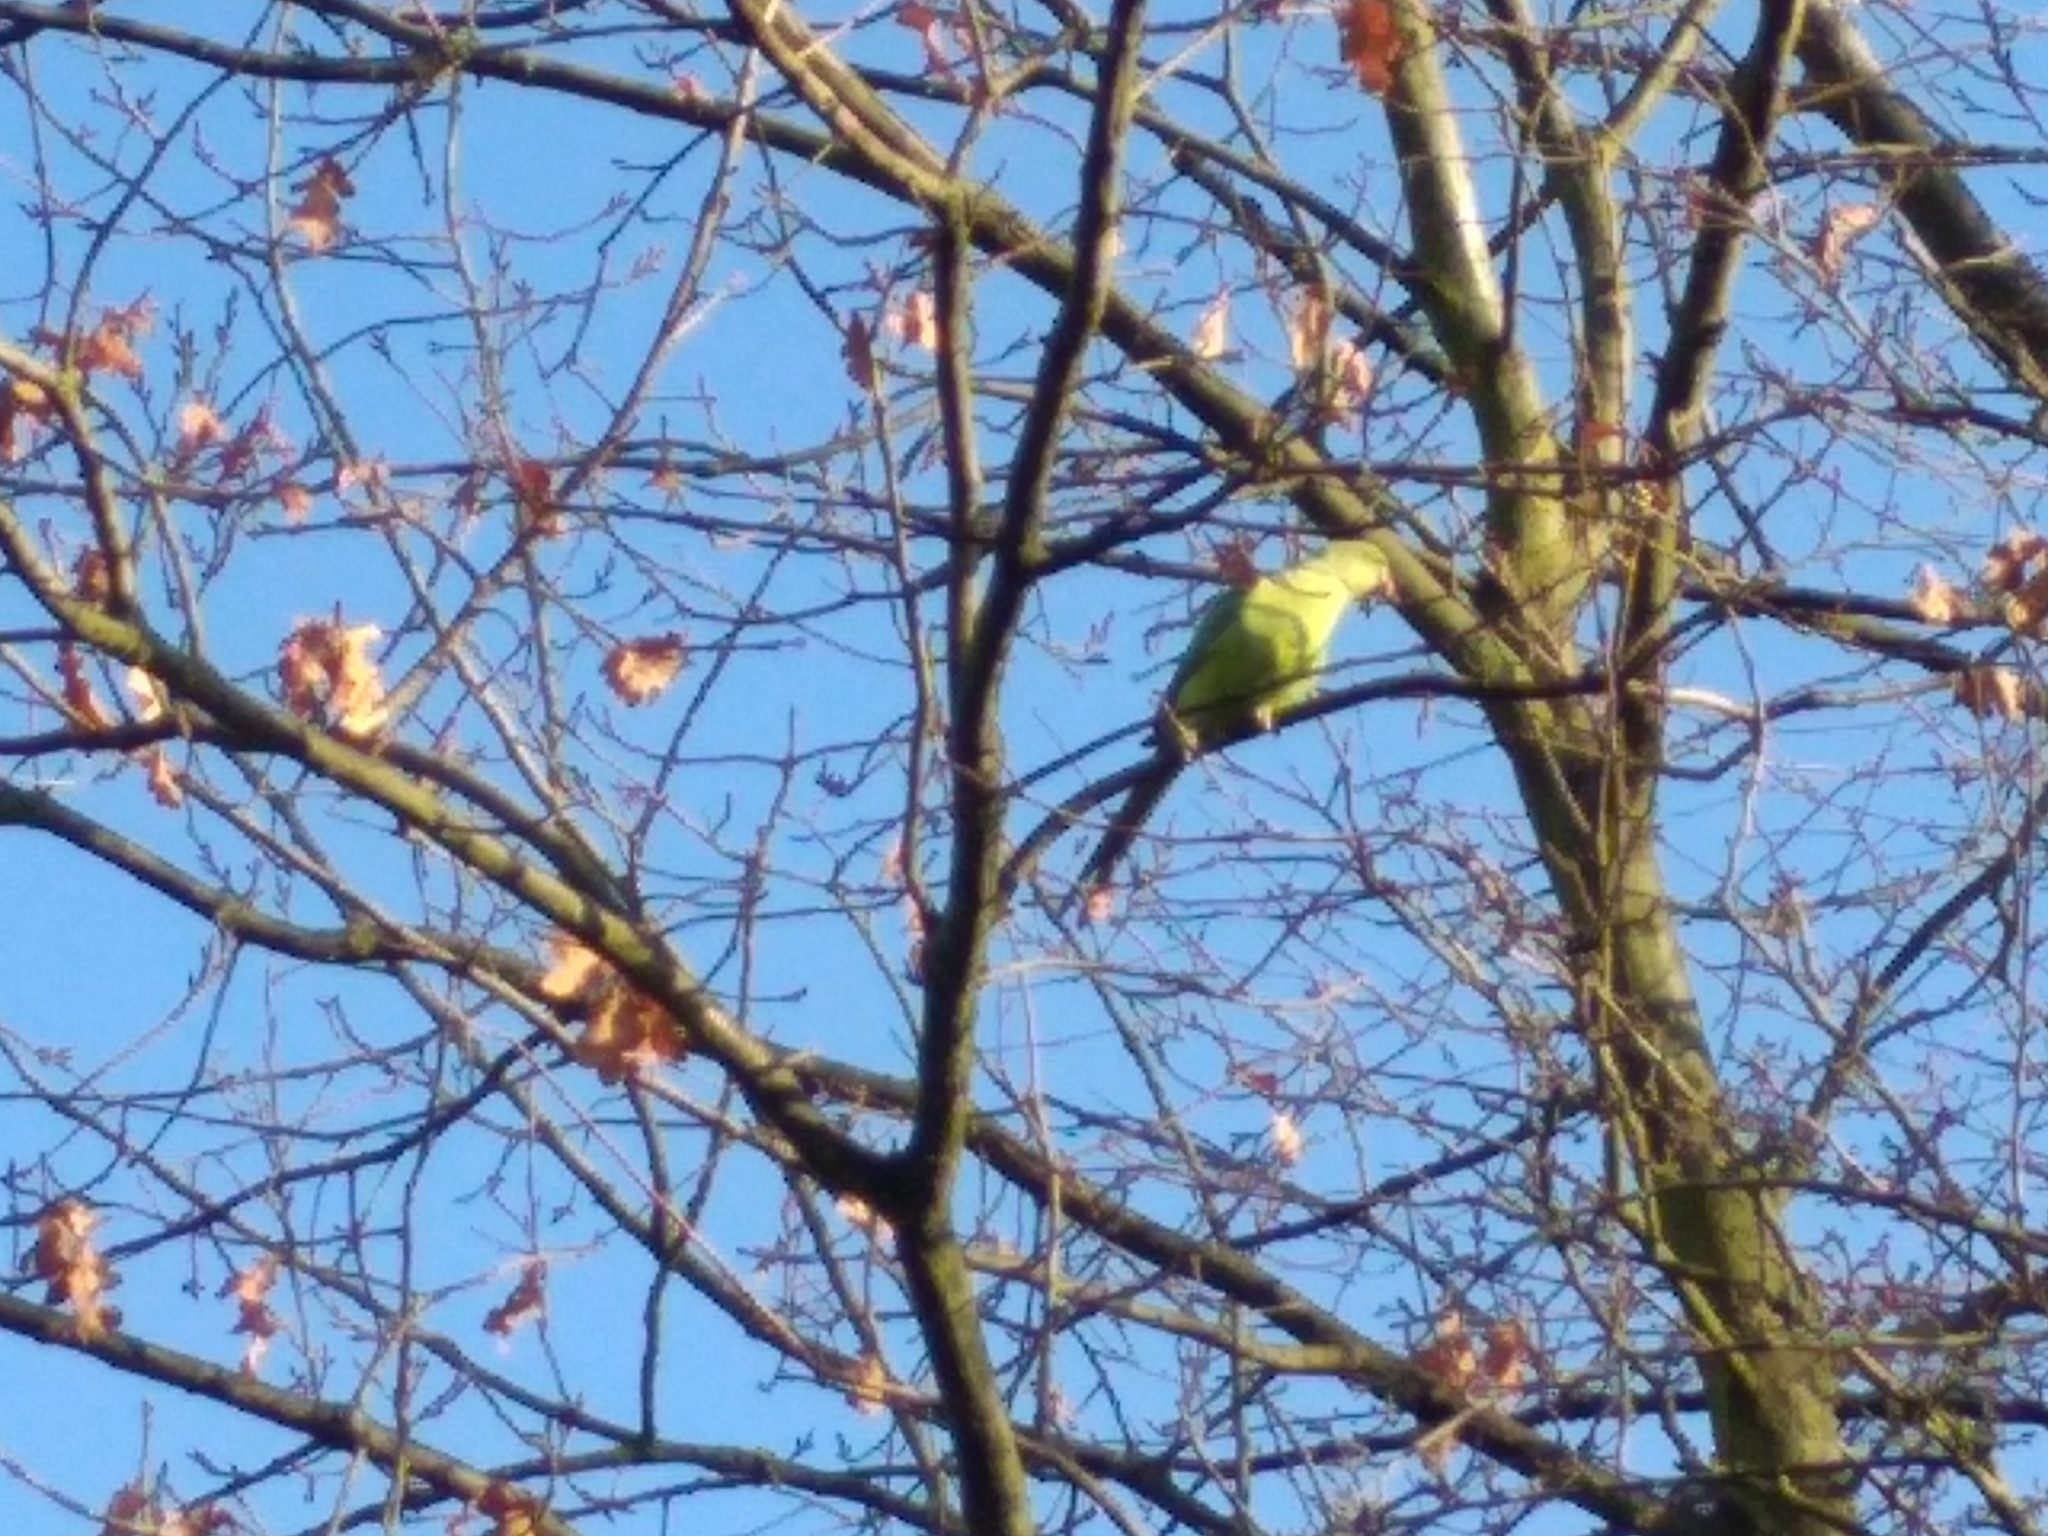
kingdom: Animalia
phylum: Chordata
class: Aves
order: Psittaciformes
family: Psittacidae
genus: Psittacula
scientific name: Psittacula krameri
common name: Rose-ringed parakeet
